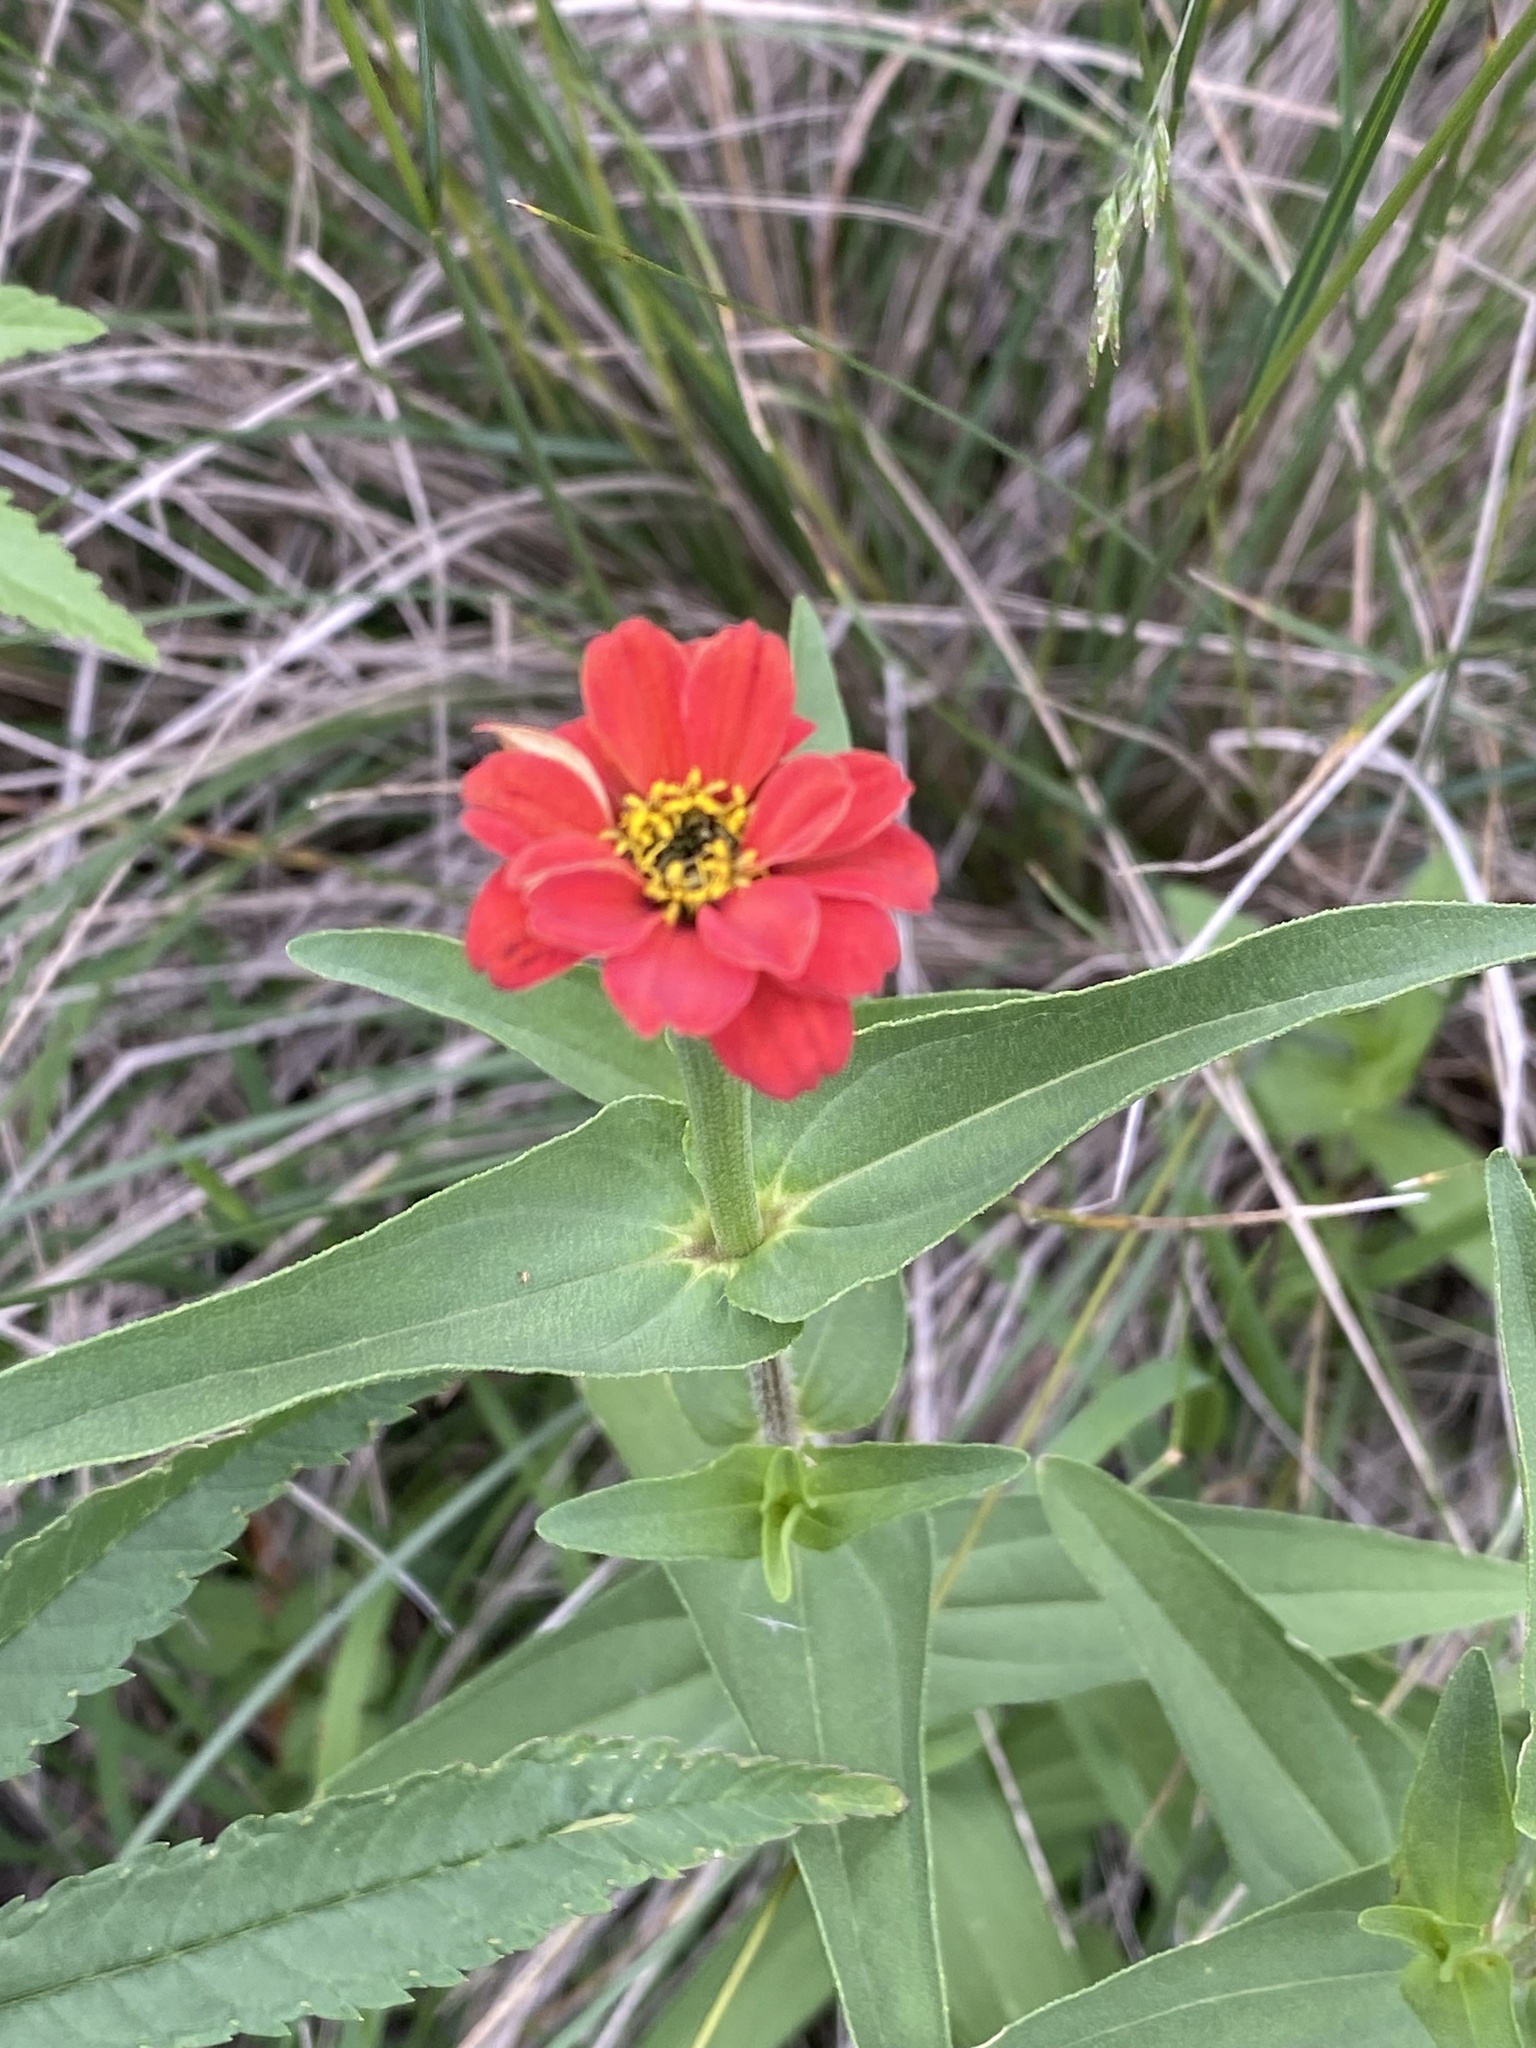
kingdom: Plantae
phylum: Tracheophyta
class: Magnoliopsida
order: Asterales
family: Asteraceae
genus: Zinnia
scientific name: Zinnia peruviana
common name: Peruvian zinnia
